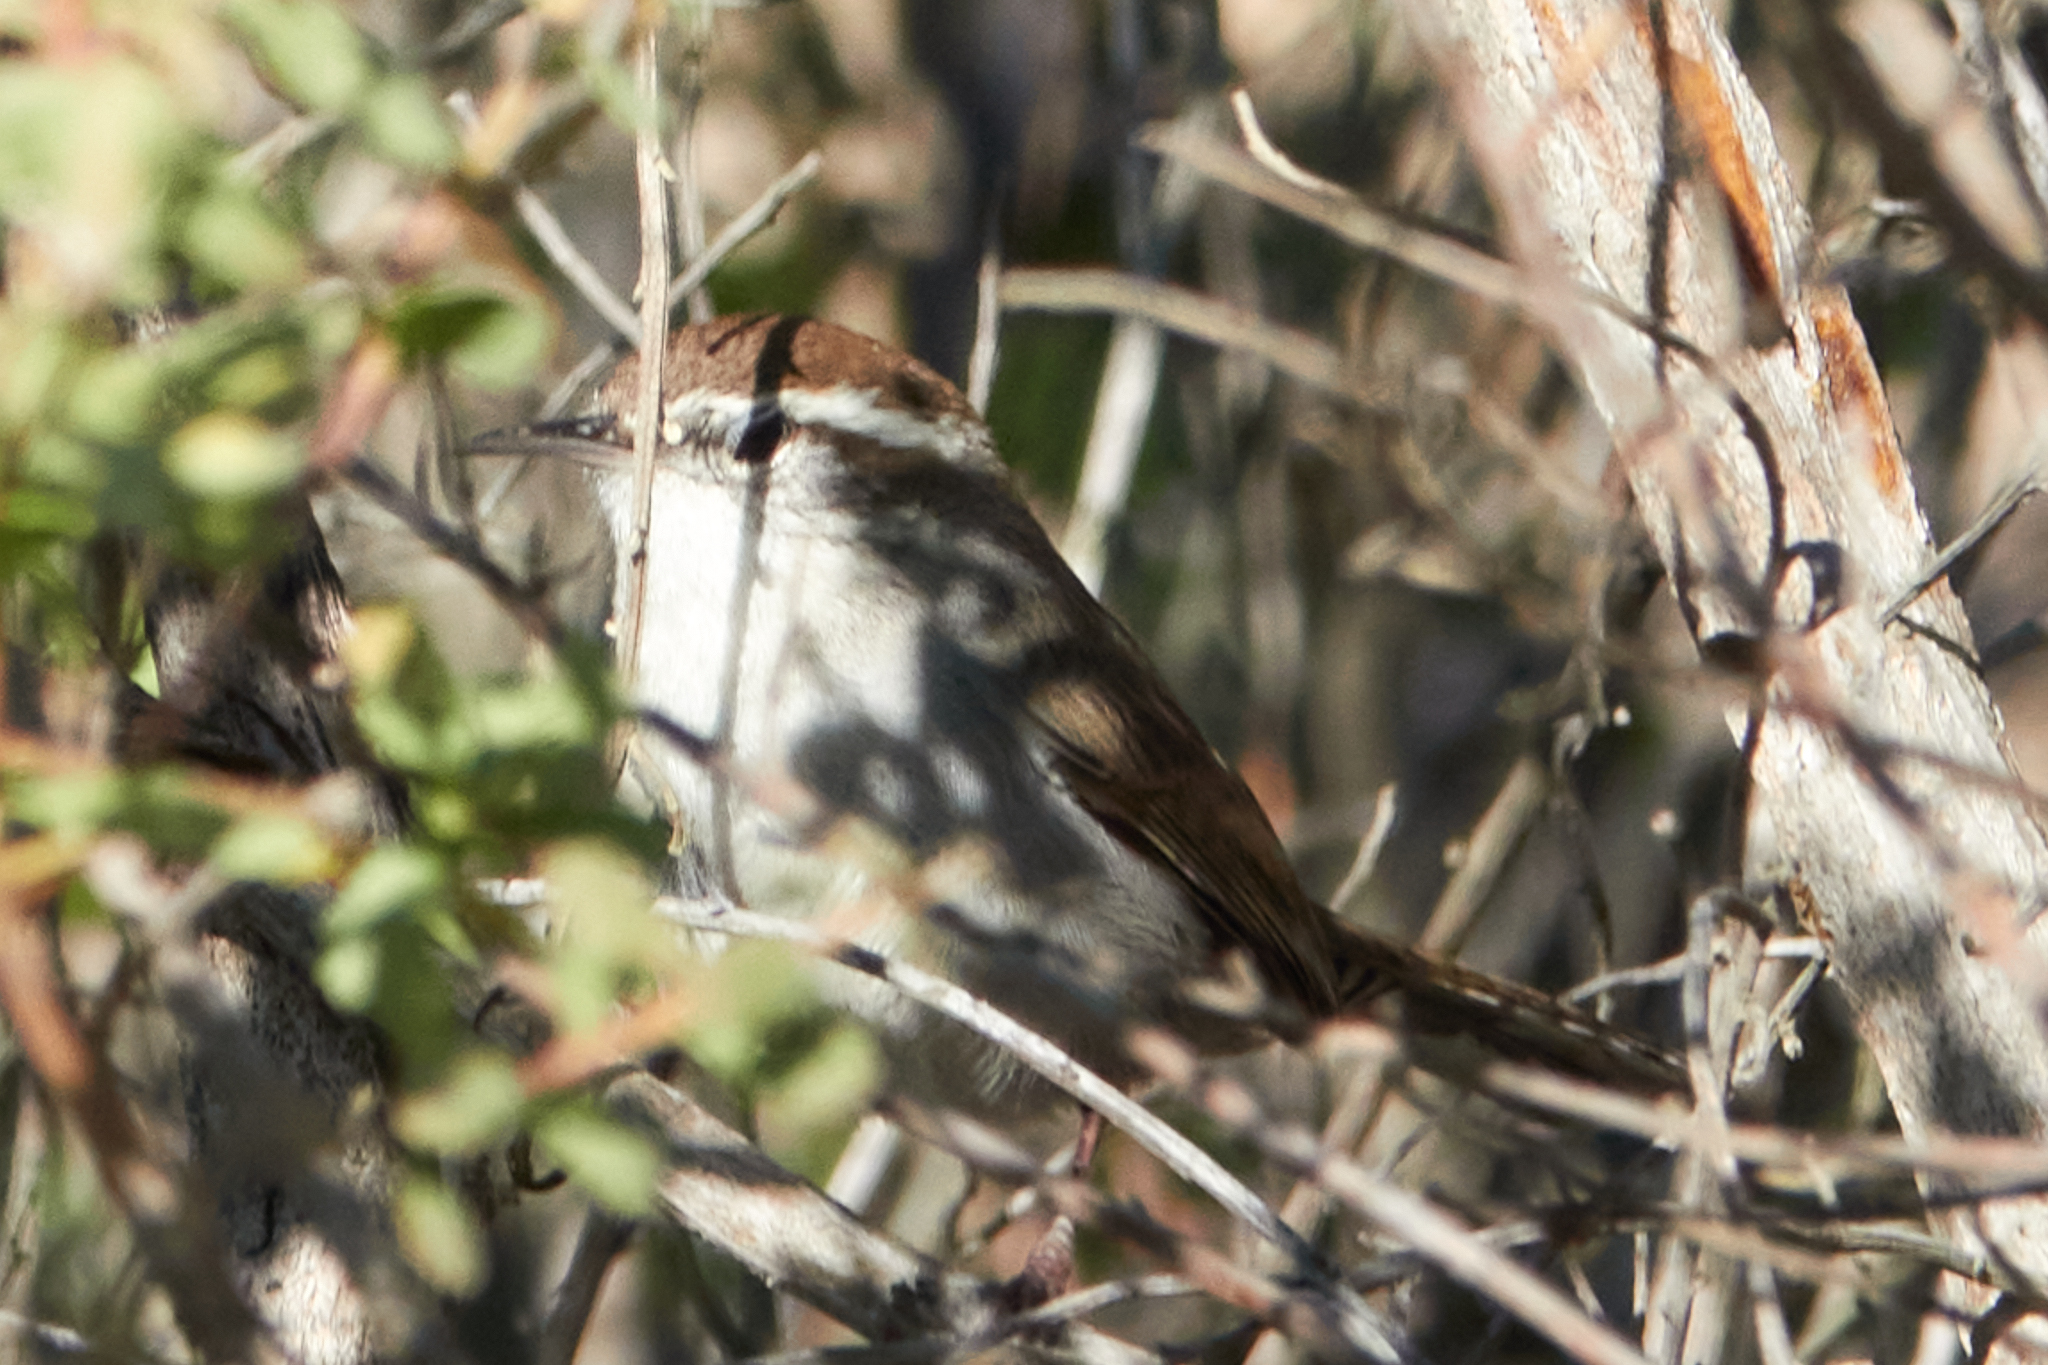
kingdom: Animalia
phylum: Chordata
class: Aves
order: Passeriformes
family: Troglodytidae
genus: Thryomanes
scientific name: Thryomanes bewickii
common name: Bewick's wren
